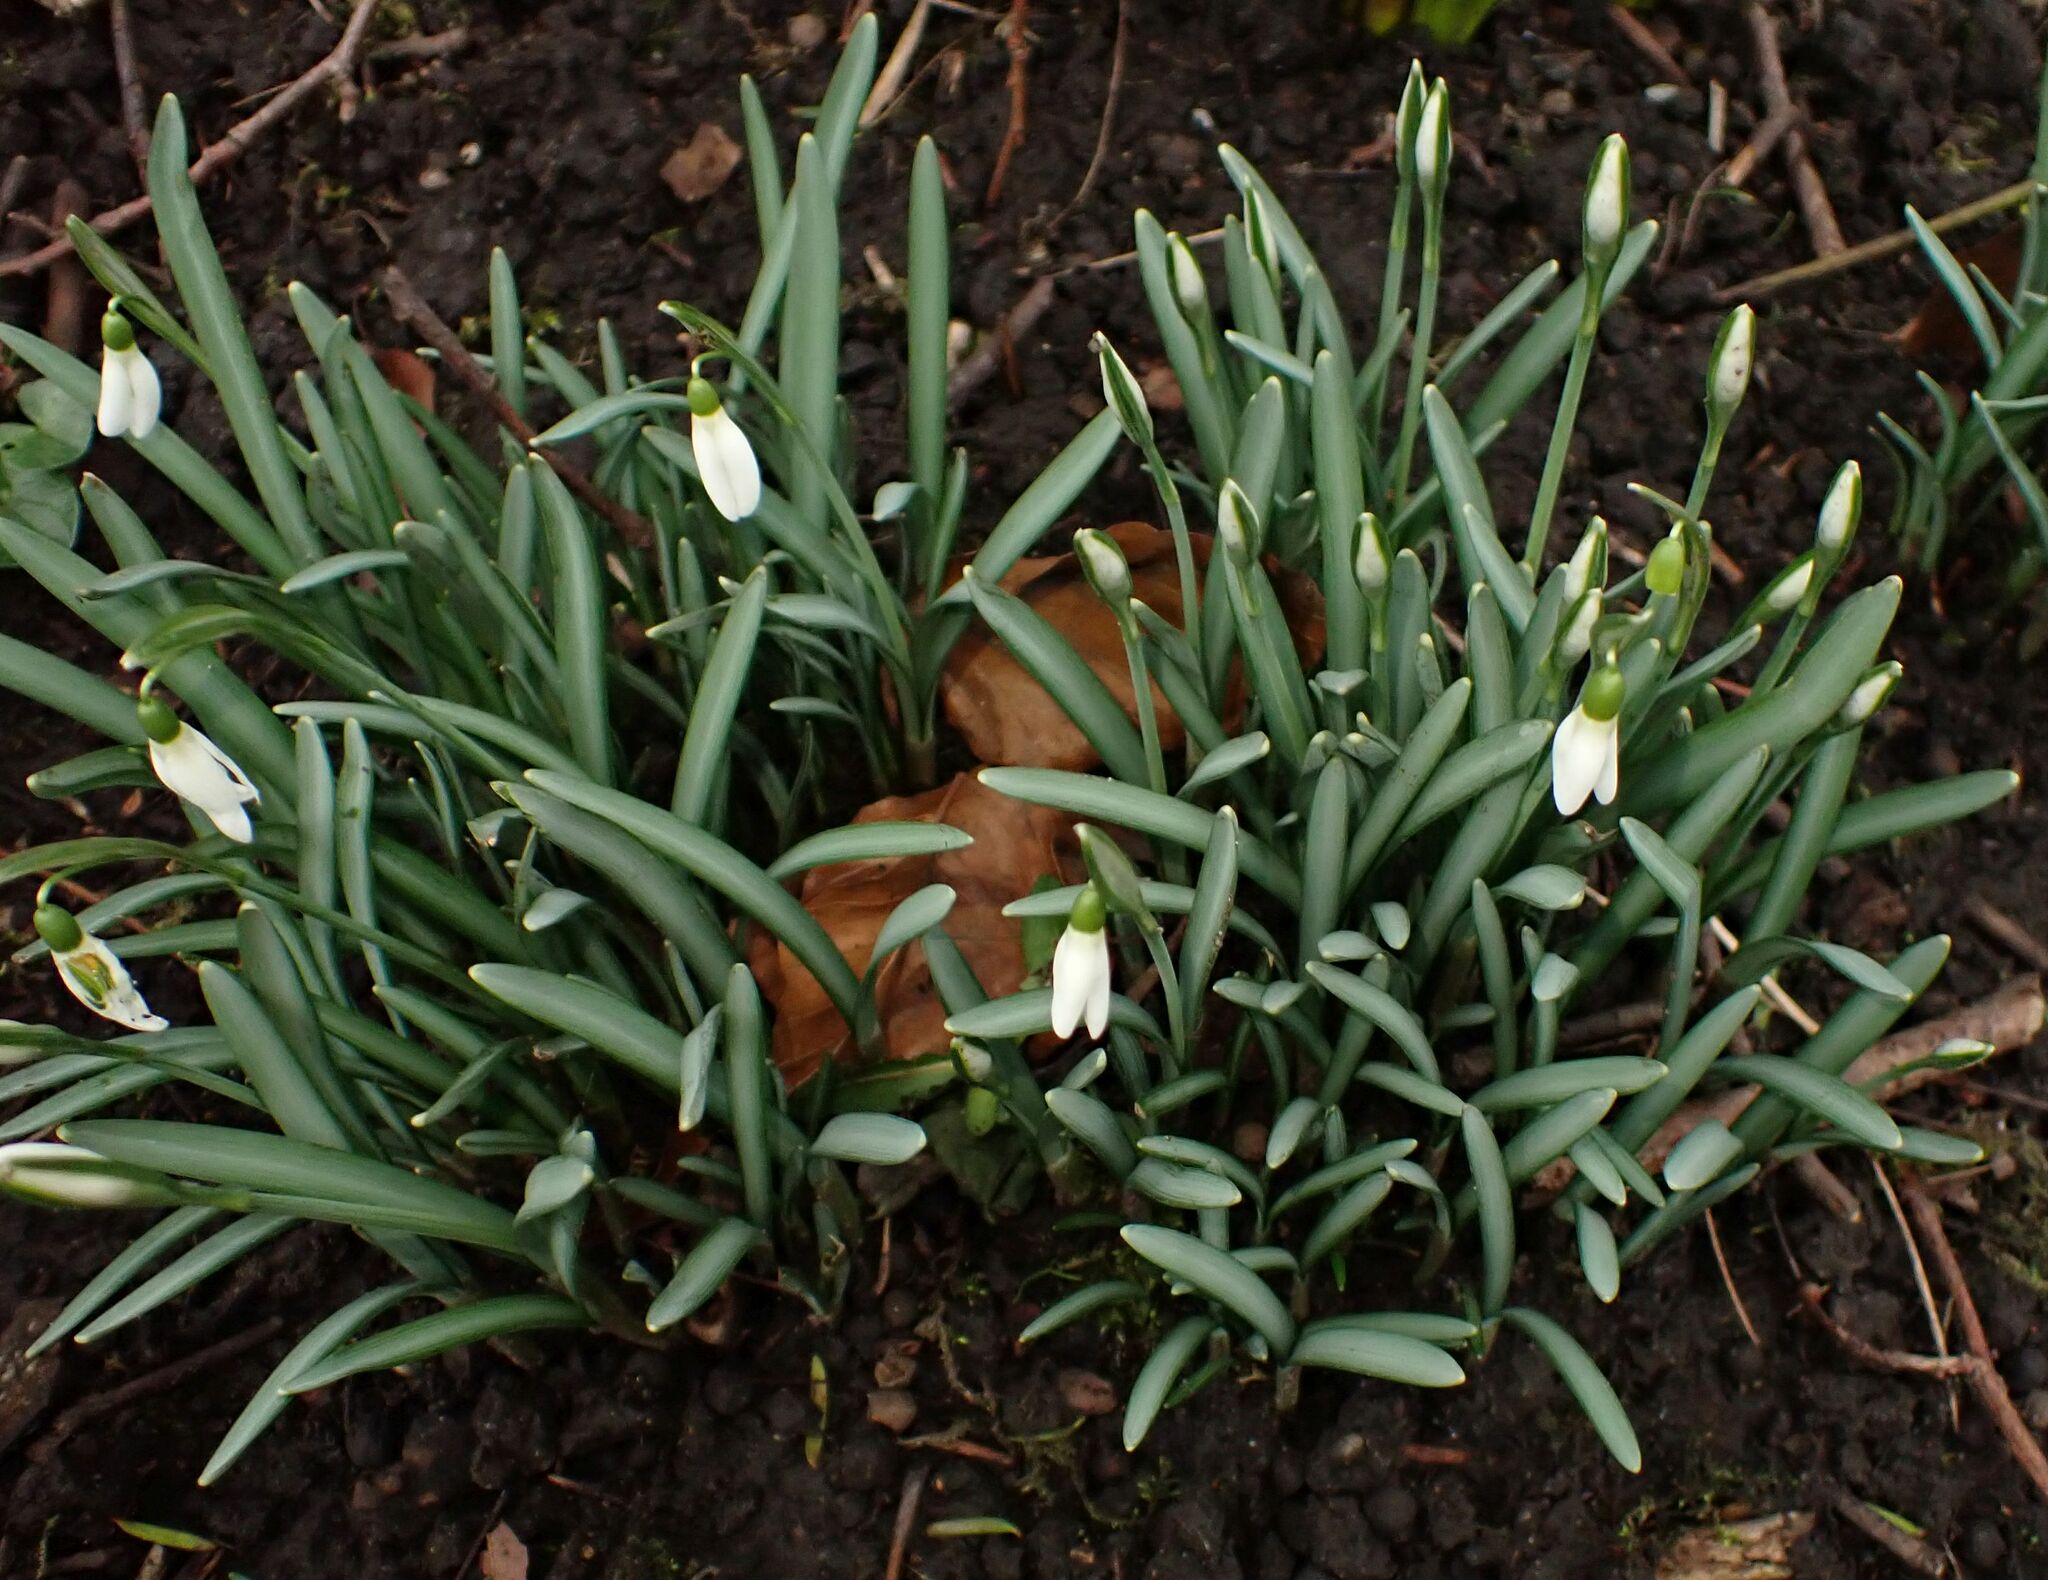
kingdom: Plantae
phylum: Tracheophyta
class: Liliopsida
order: Asparagales
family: Amaryllidaceae
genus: Galanthus
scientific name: Galanthus nivalis
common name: Snowdrop
